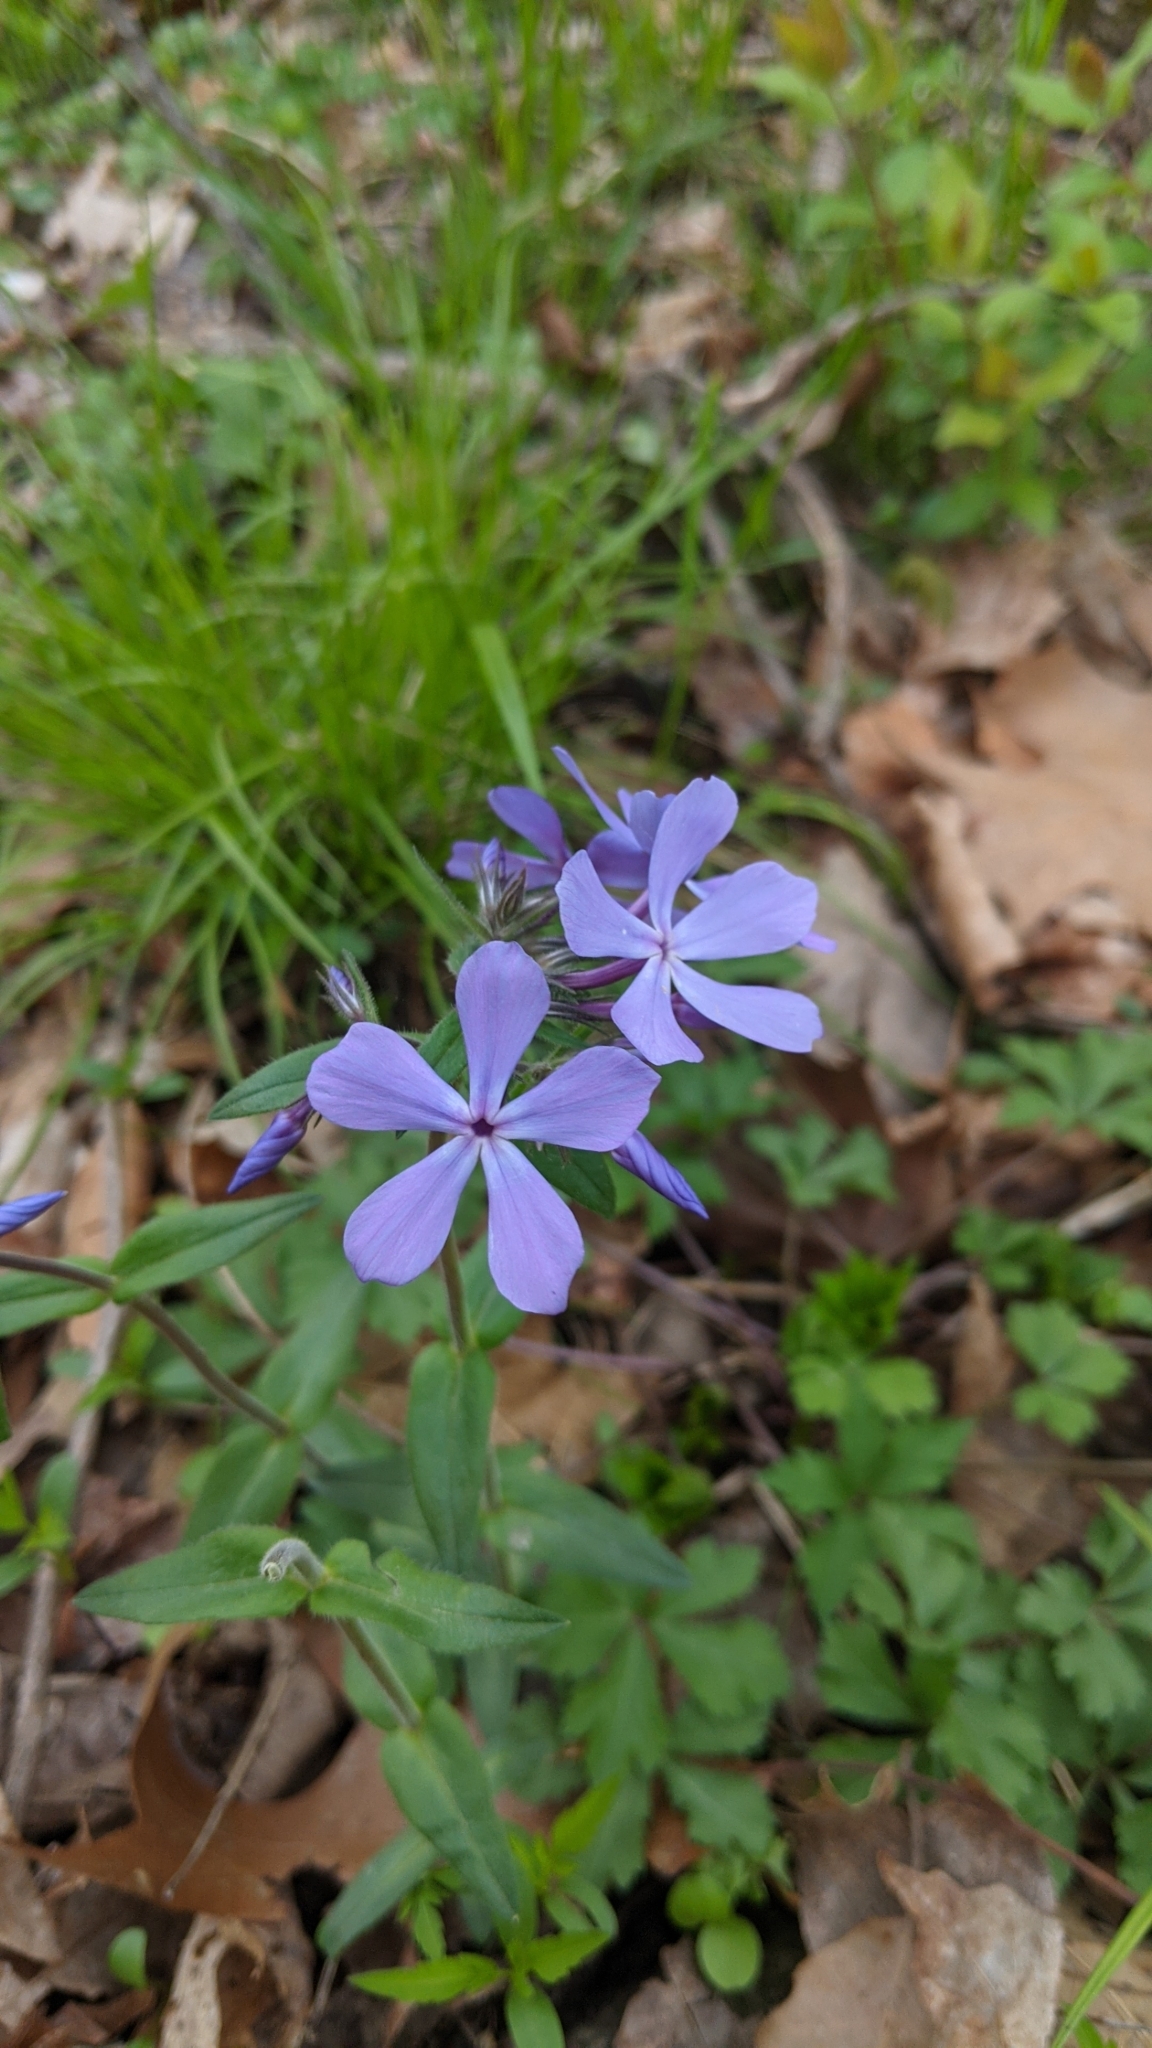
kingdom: Plantae
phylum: Tracheophyta
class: Magnoliopsida
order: Ericales
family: Polemoniaceae
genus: Phlox
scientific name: Phlox divaricata
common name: Blue phlox
